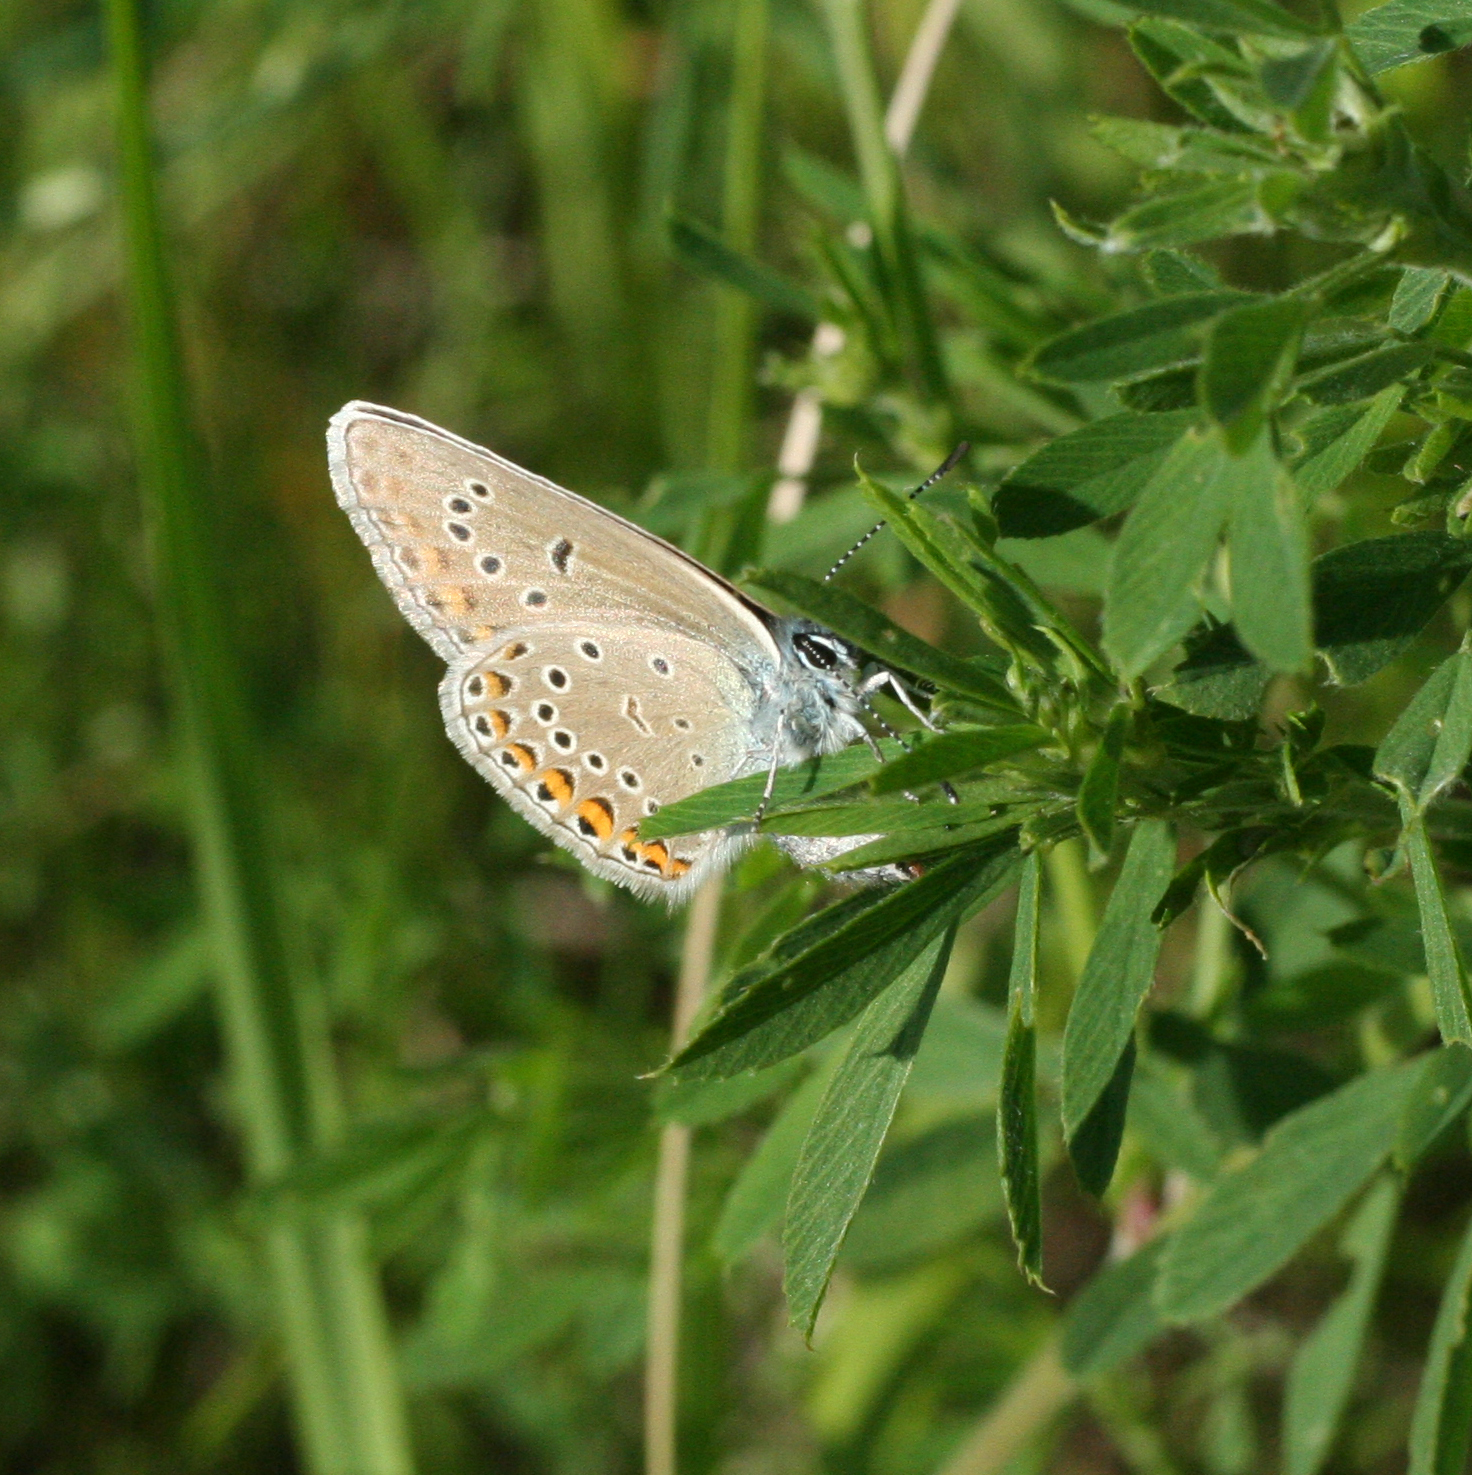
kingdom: Animalia
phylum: Arthropoda
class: Insecta
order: Lepidoptera
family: Lycaenidae
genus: Plebejus
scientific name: Plebejus amanda
